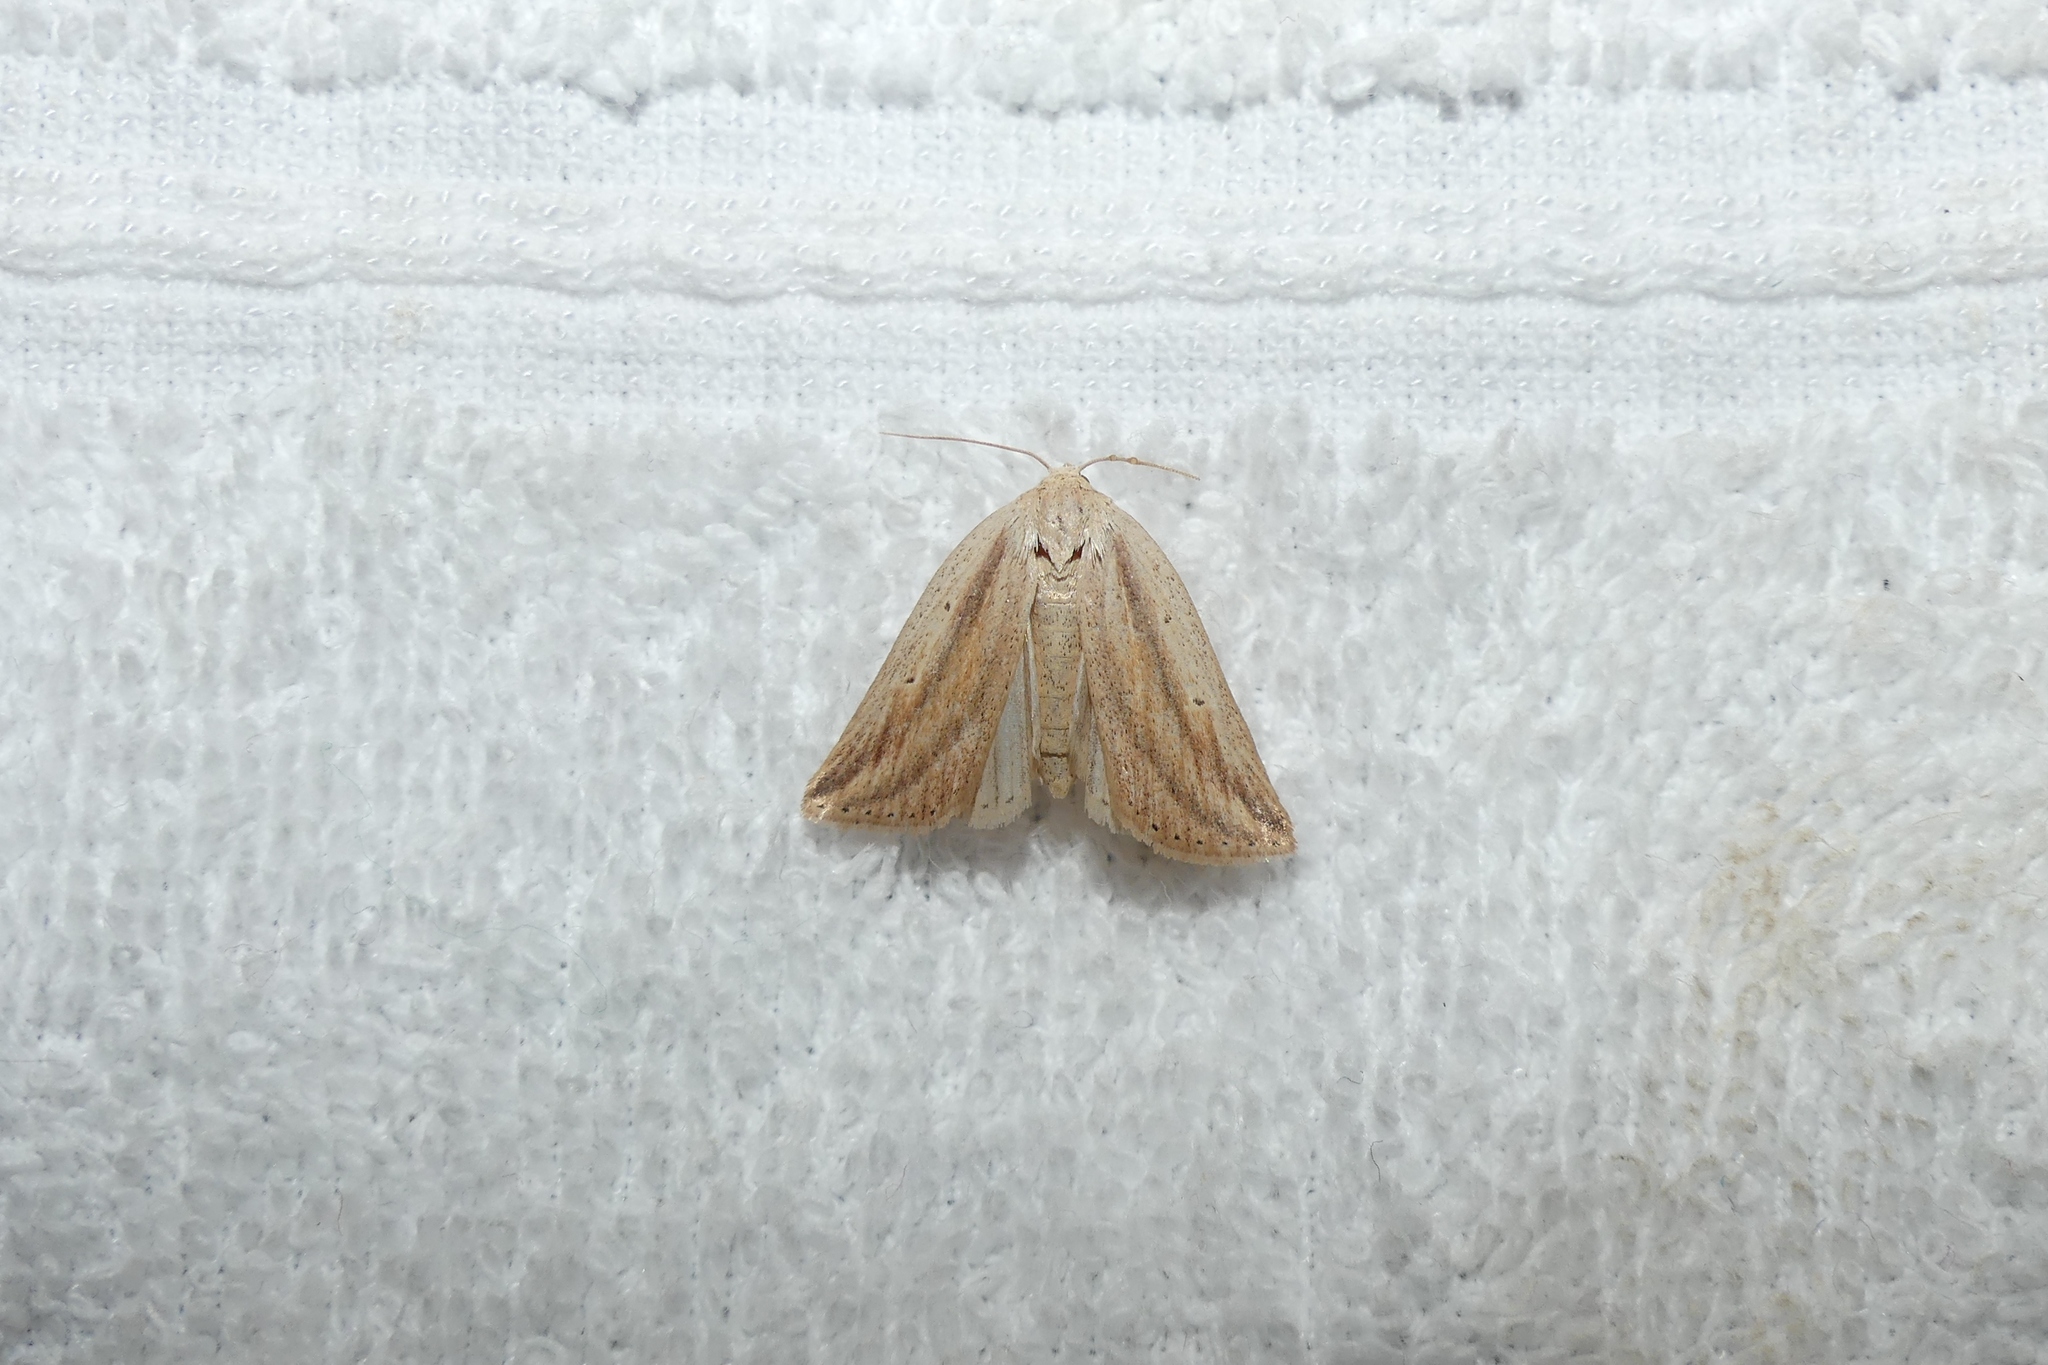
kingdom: Animalia
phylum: Arthropoda
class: Insecta
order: Lepidoptera
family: Noctuidae
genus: Amolita
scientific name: Amolita fessa
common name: Feeble grass moth
